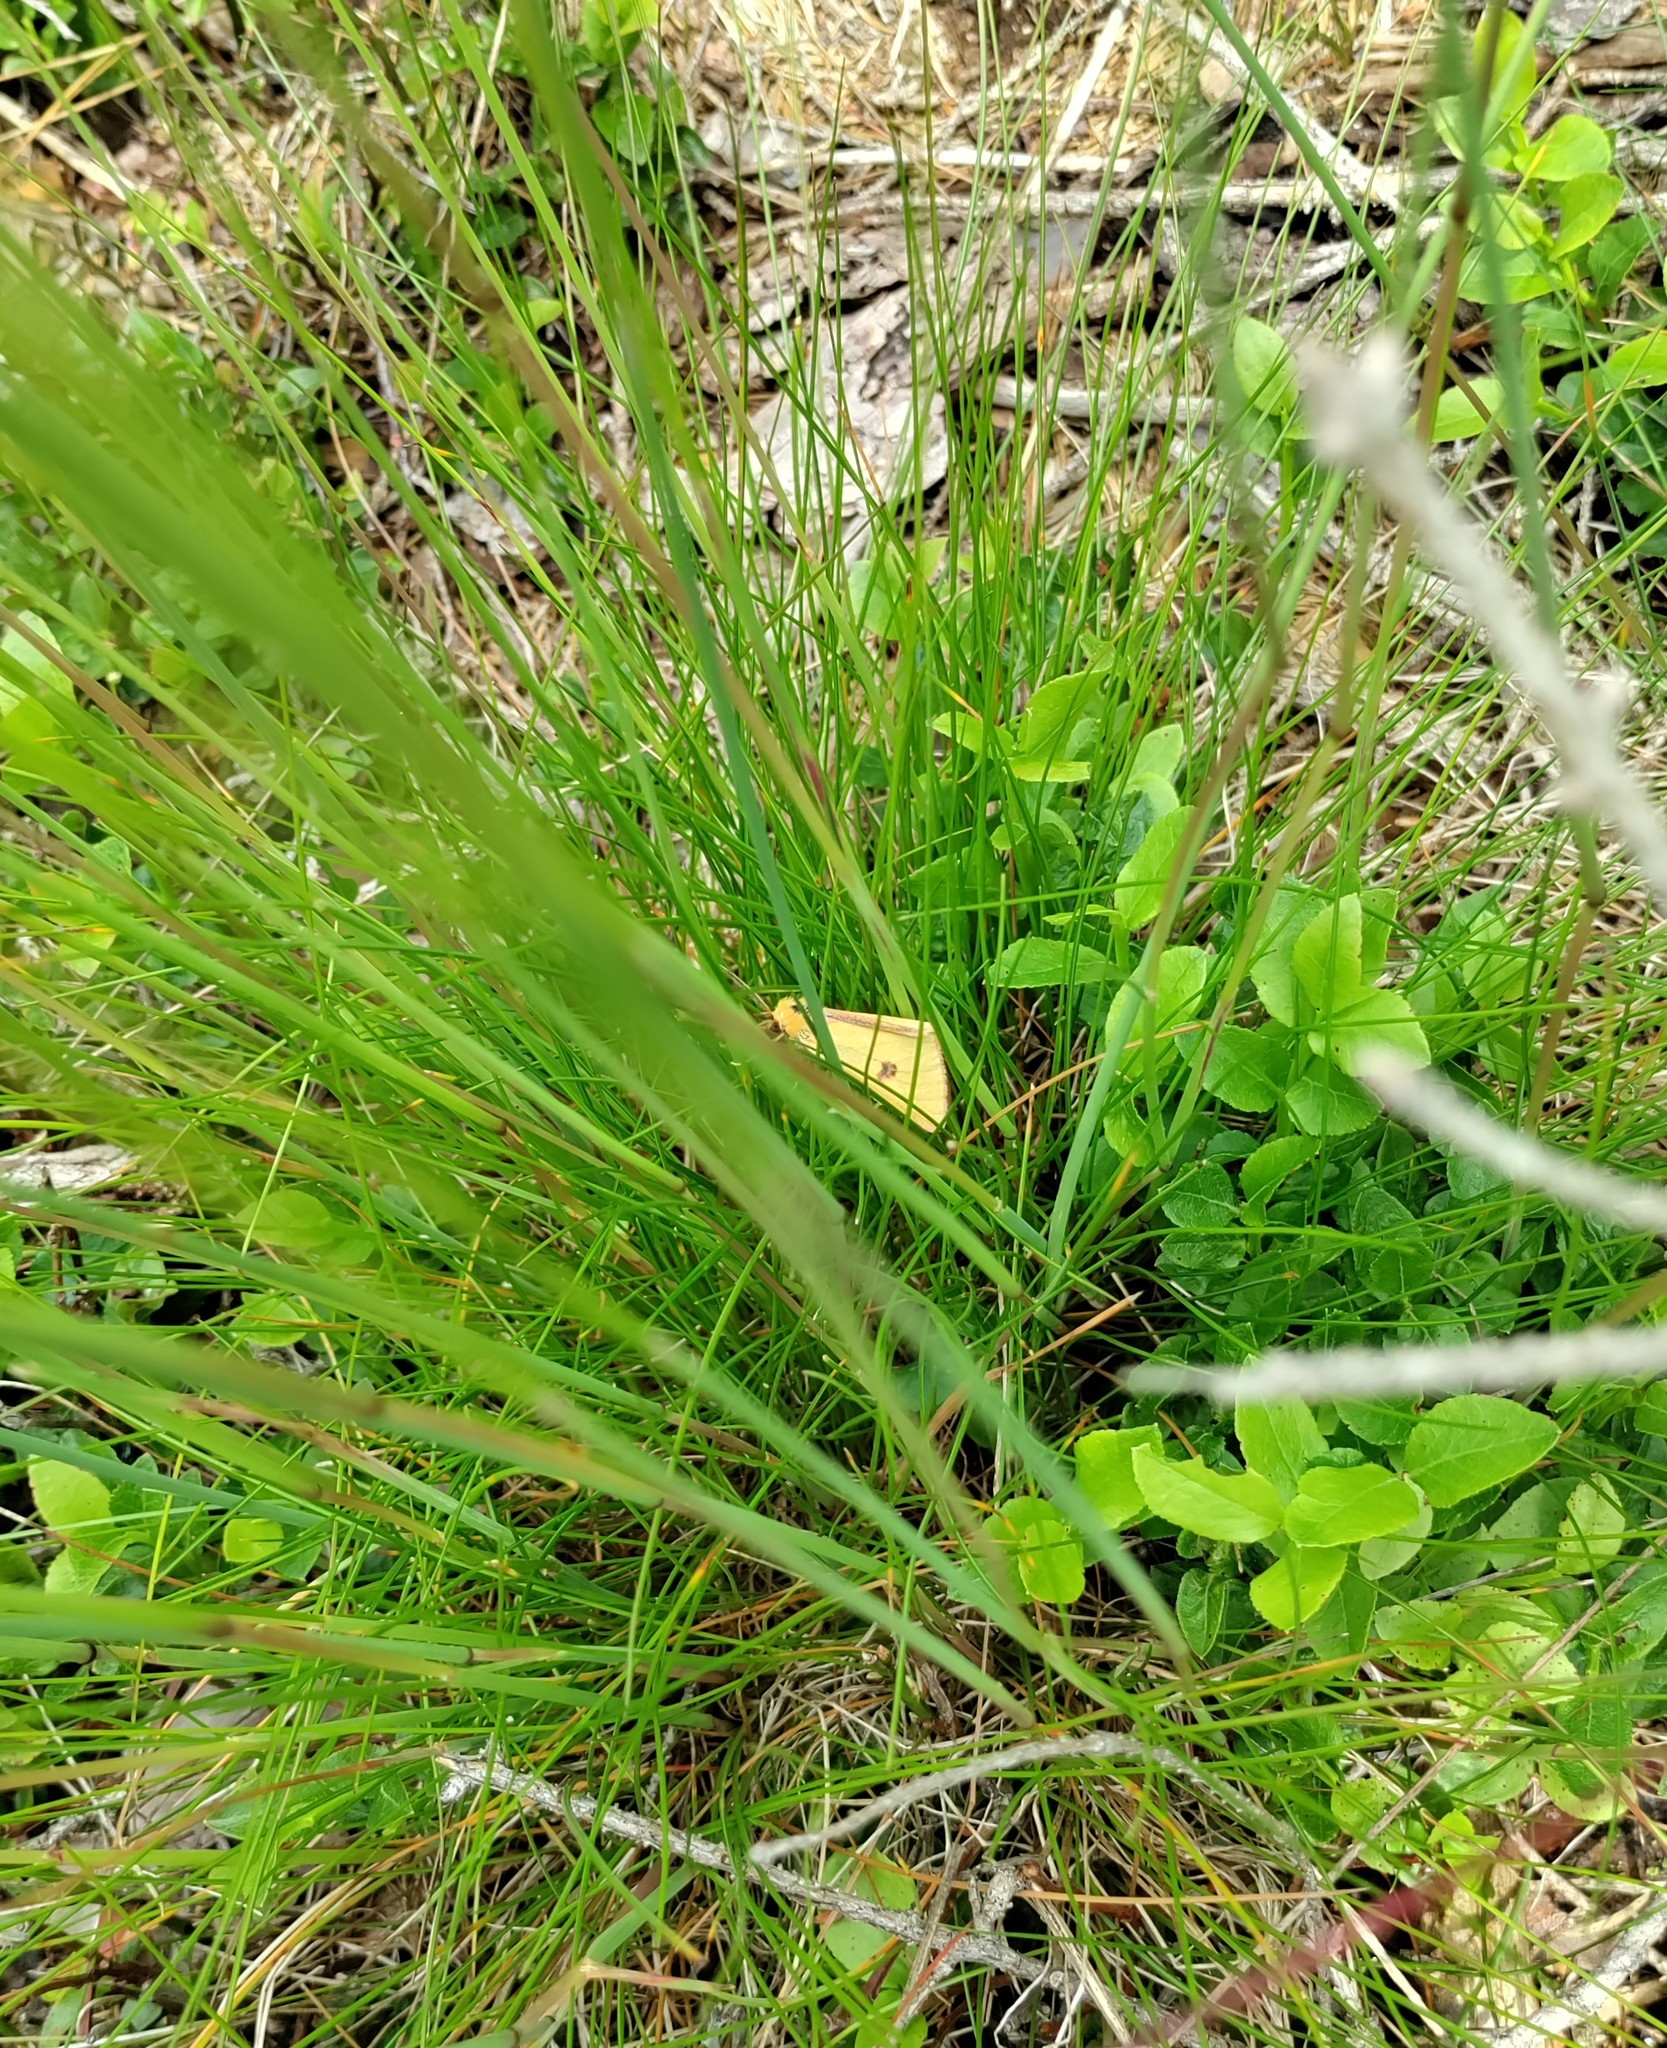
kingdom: Animalia
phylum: Arthropoda
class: Insecta
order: Lepidoptera
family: Erebidae
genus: Diacrisia
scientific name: Diacrisia sannio
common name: Clouded buff
